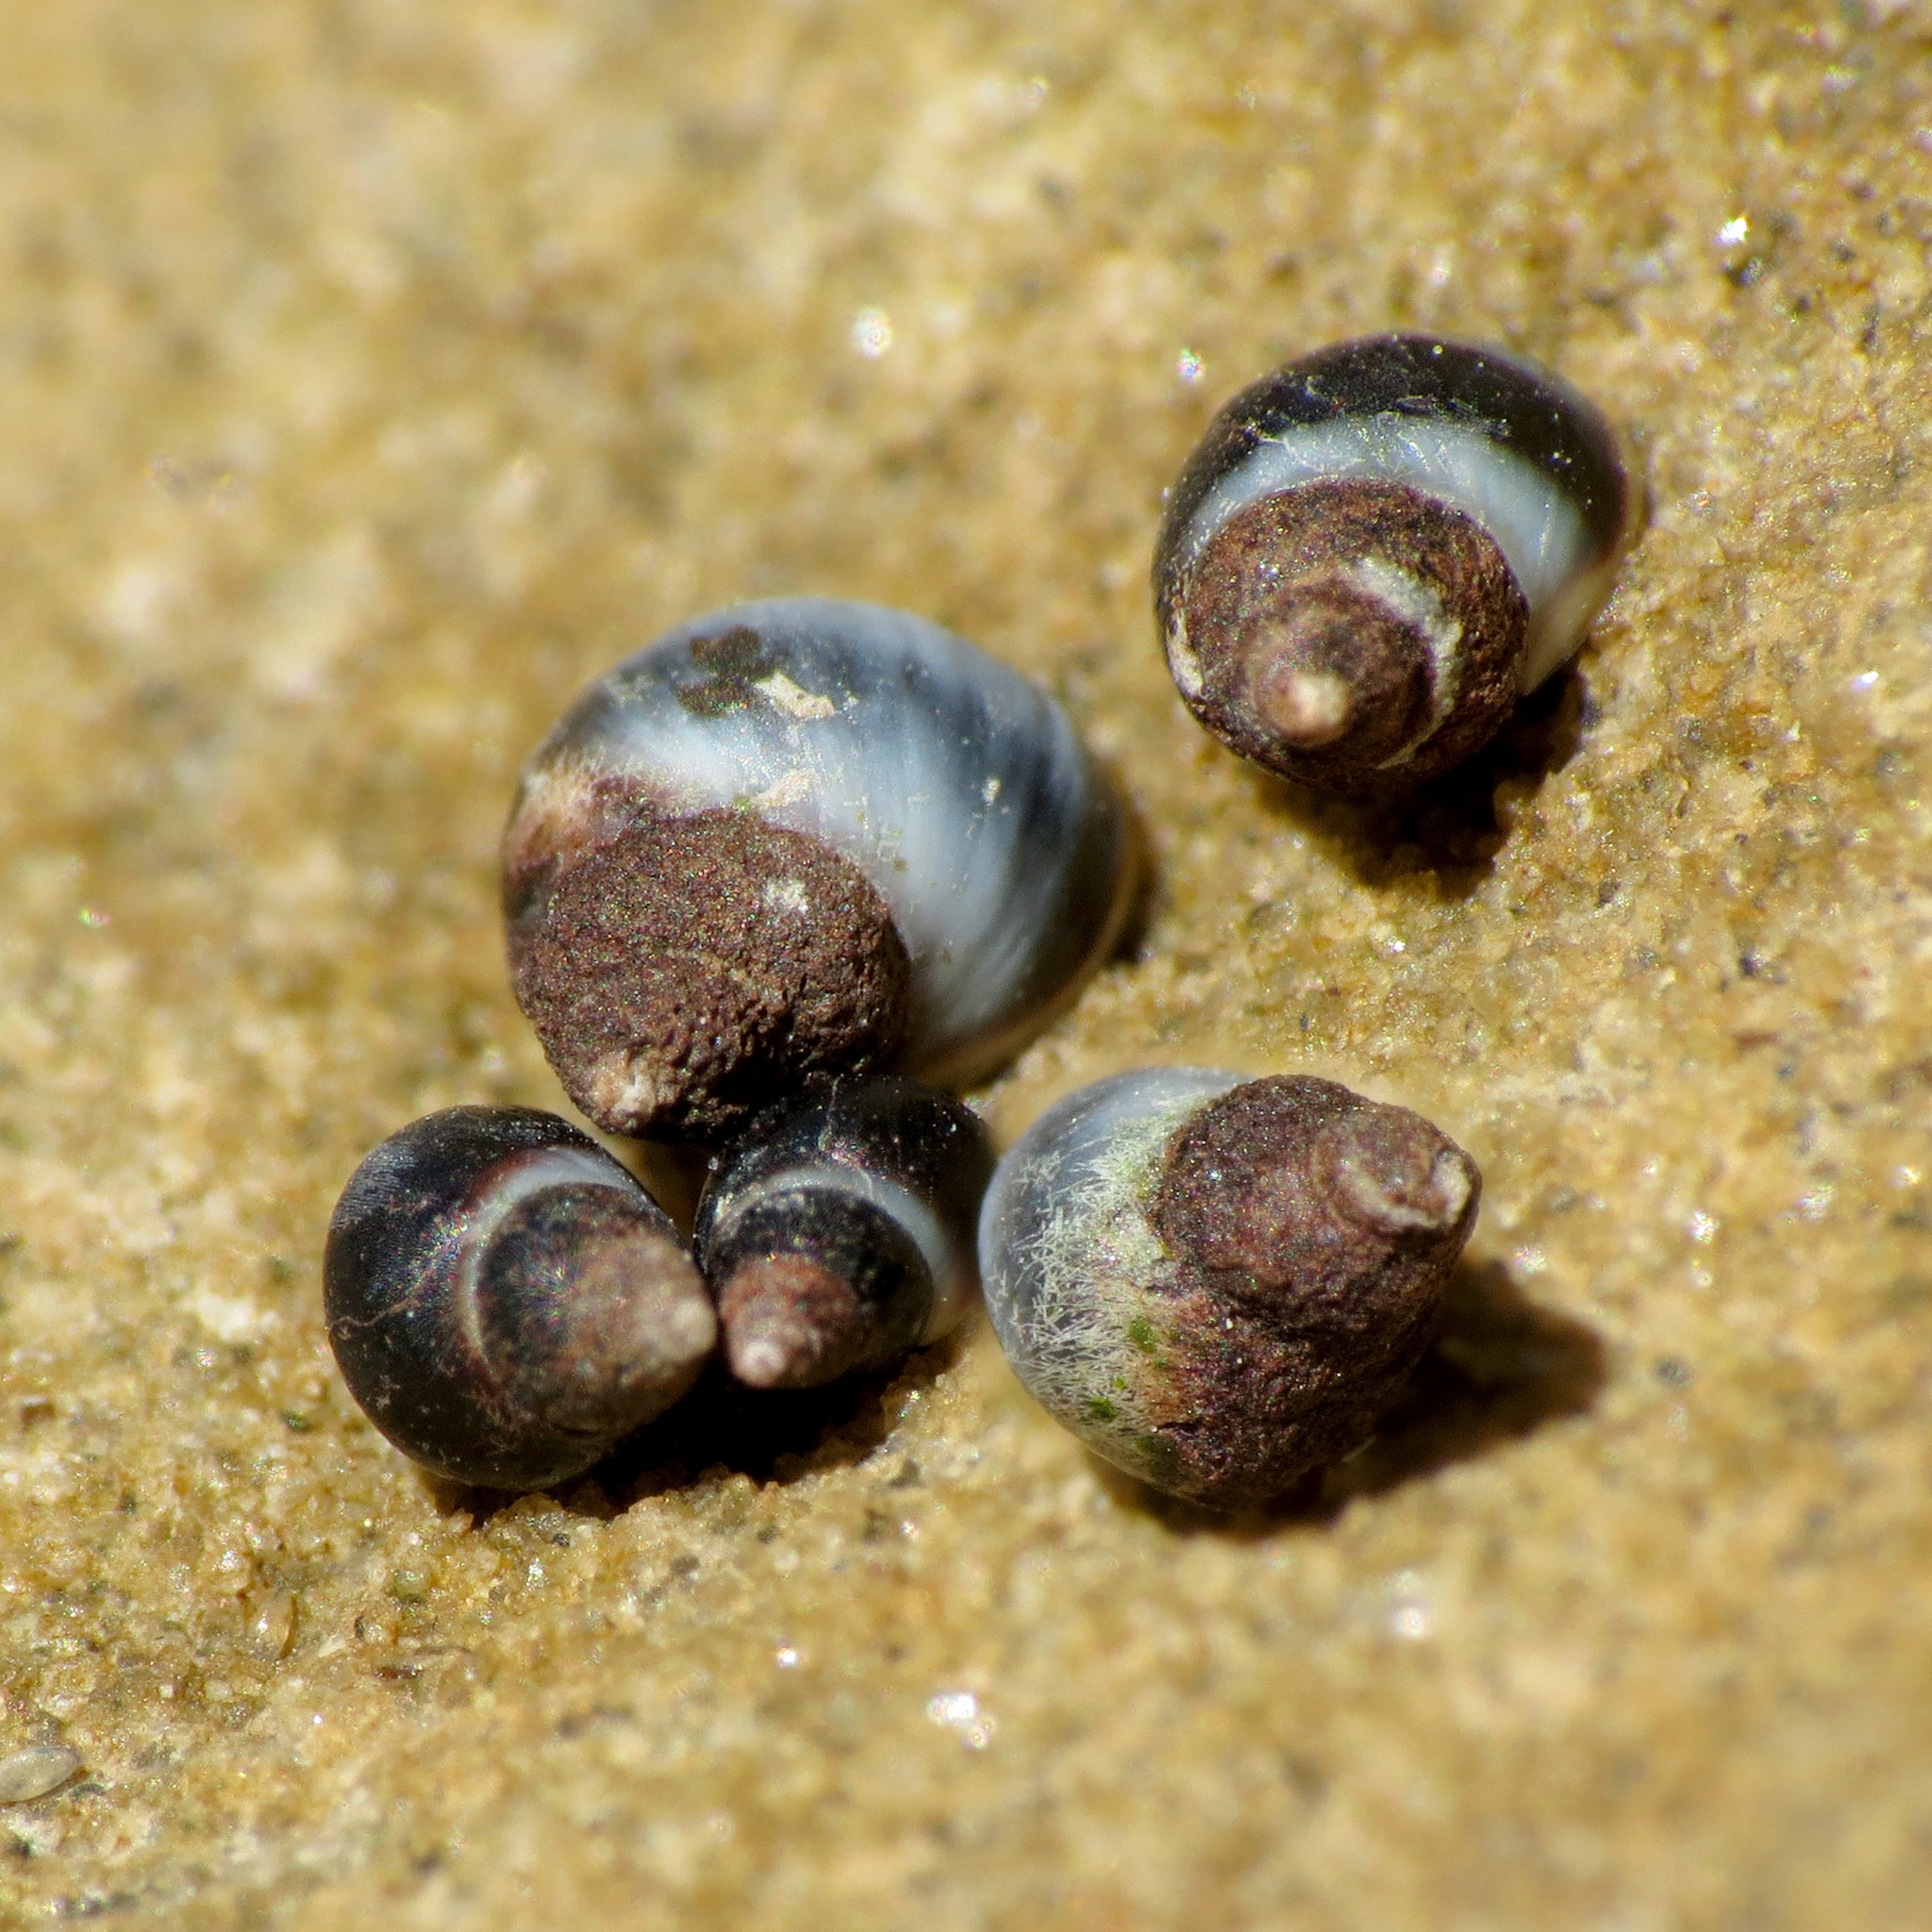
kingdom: Animalia
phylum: Mollusca
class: Gastropoda
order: Littorinimorpha
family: Littorinidae
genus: Austrolittorina
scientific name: Austrolittorina antipodum
